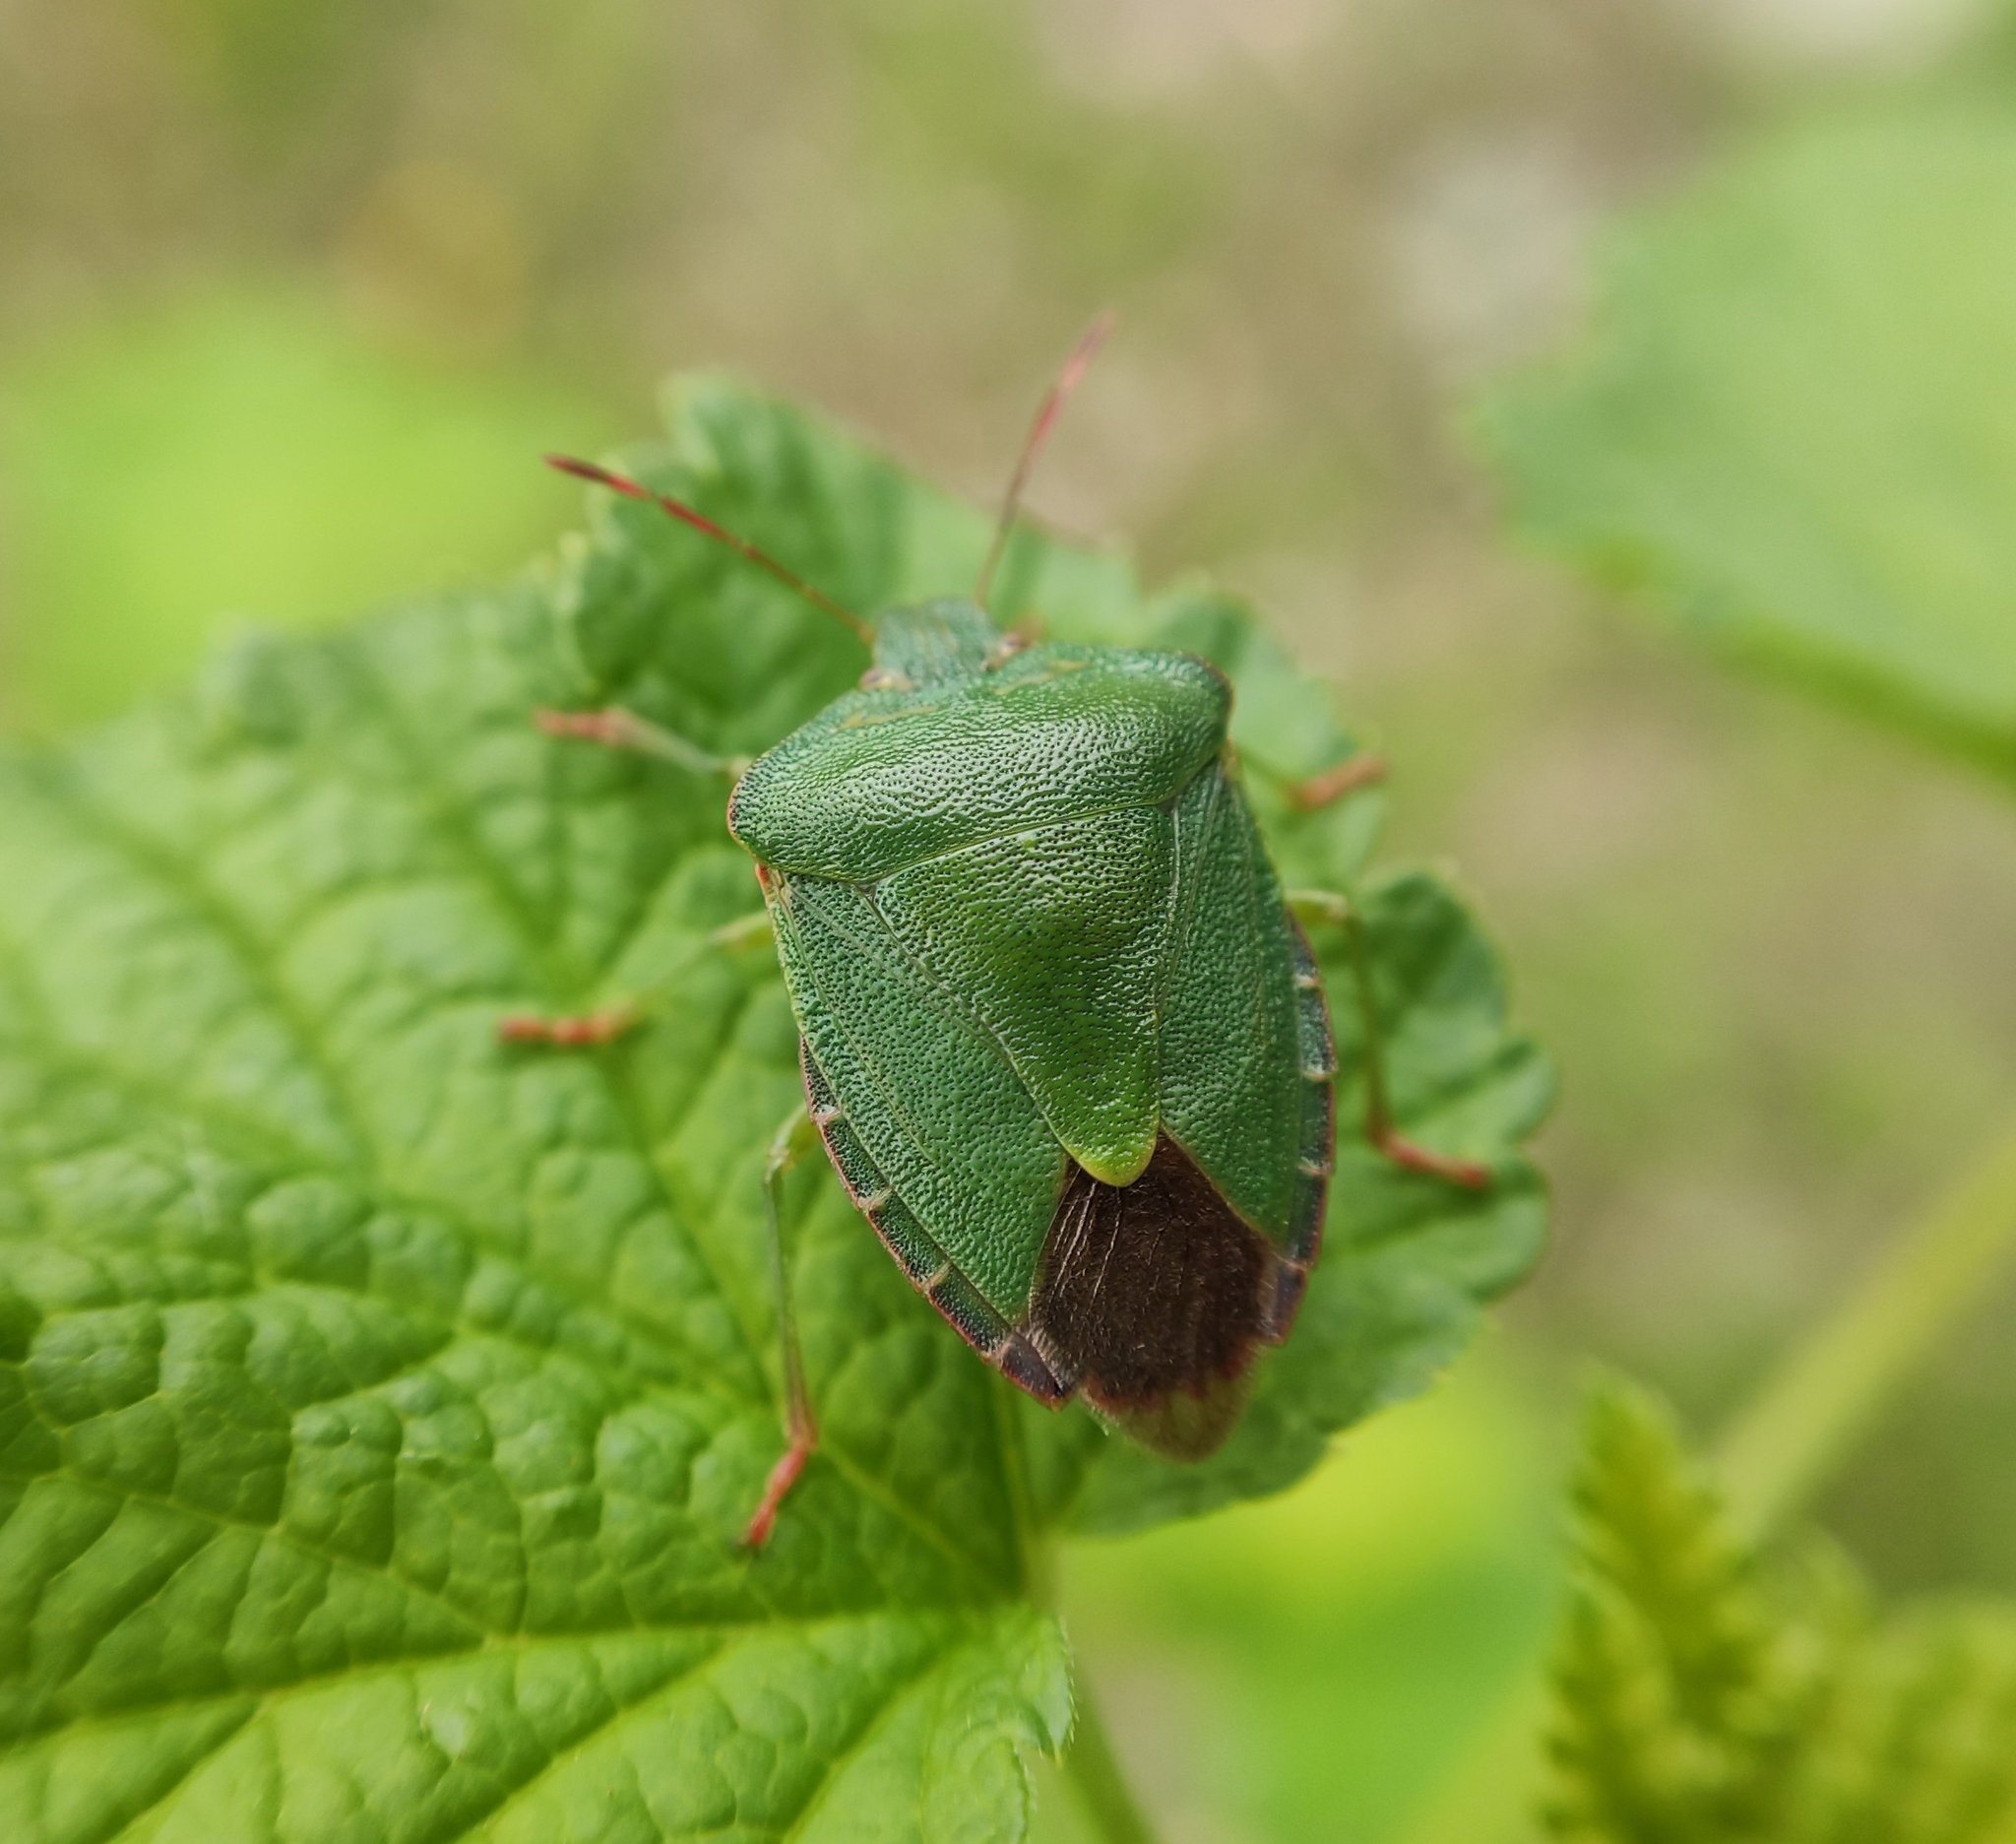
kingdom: Animalia
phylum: Arthropoda
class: Insecta
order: Hemiptera
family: Pentatomidae
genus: Palomena
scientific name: Palomena prasina
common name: Green shieldbug
